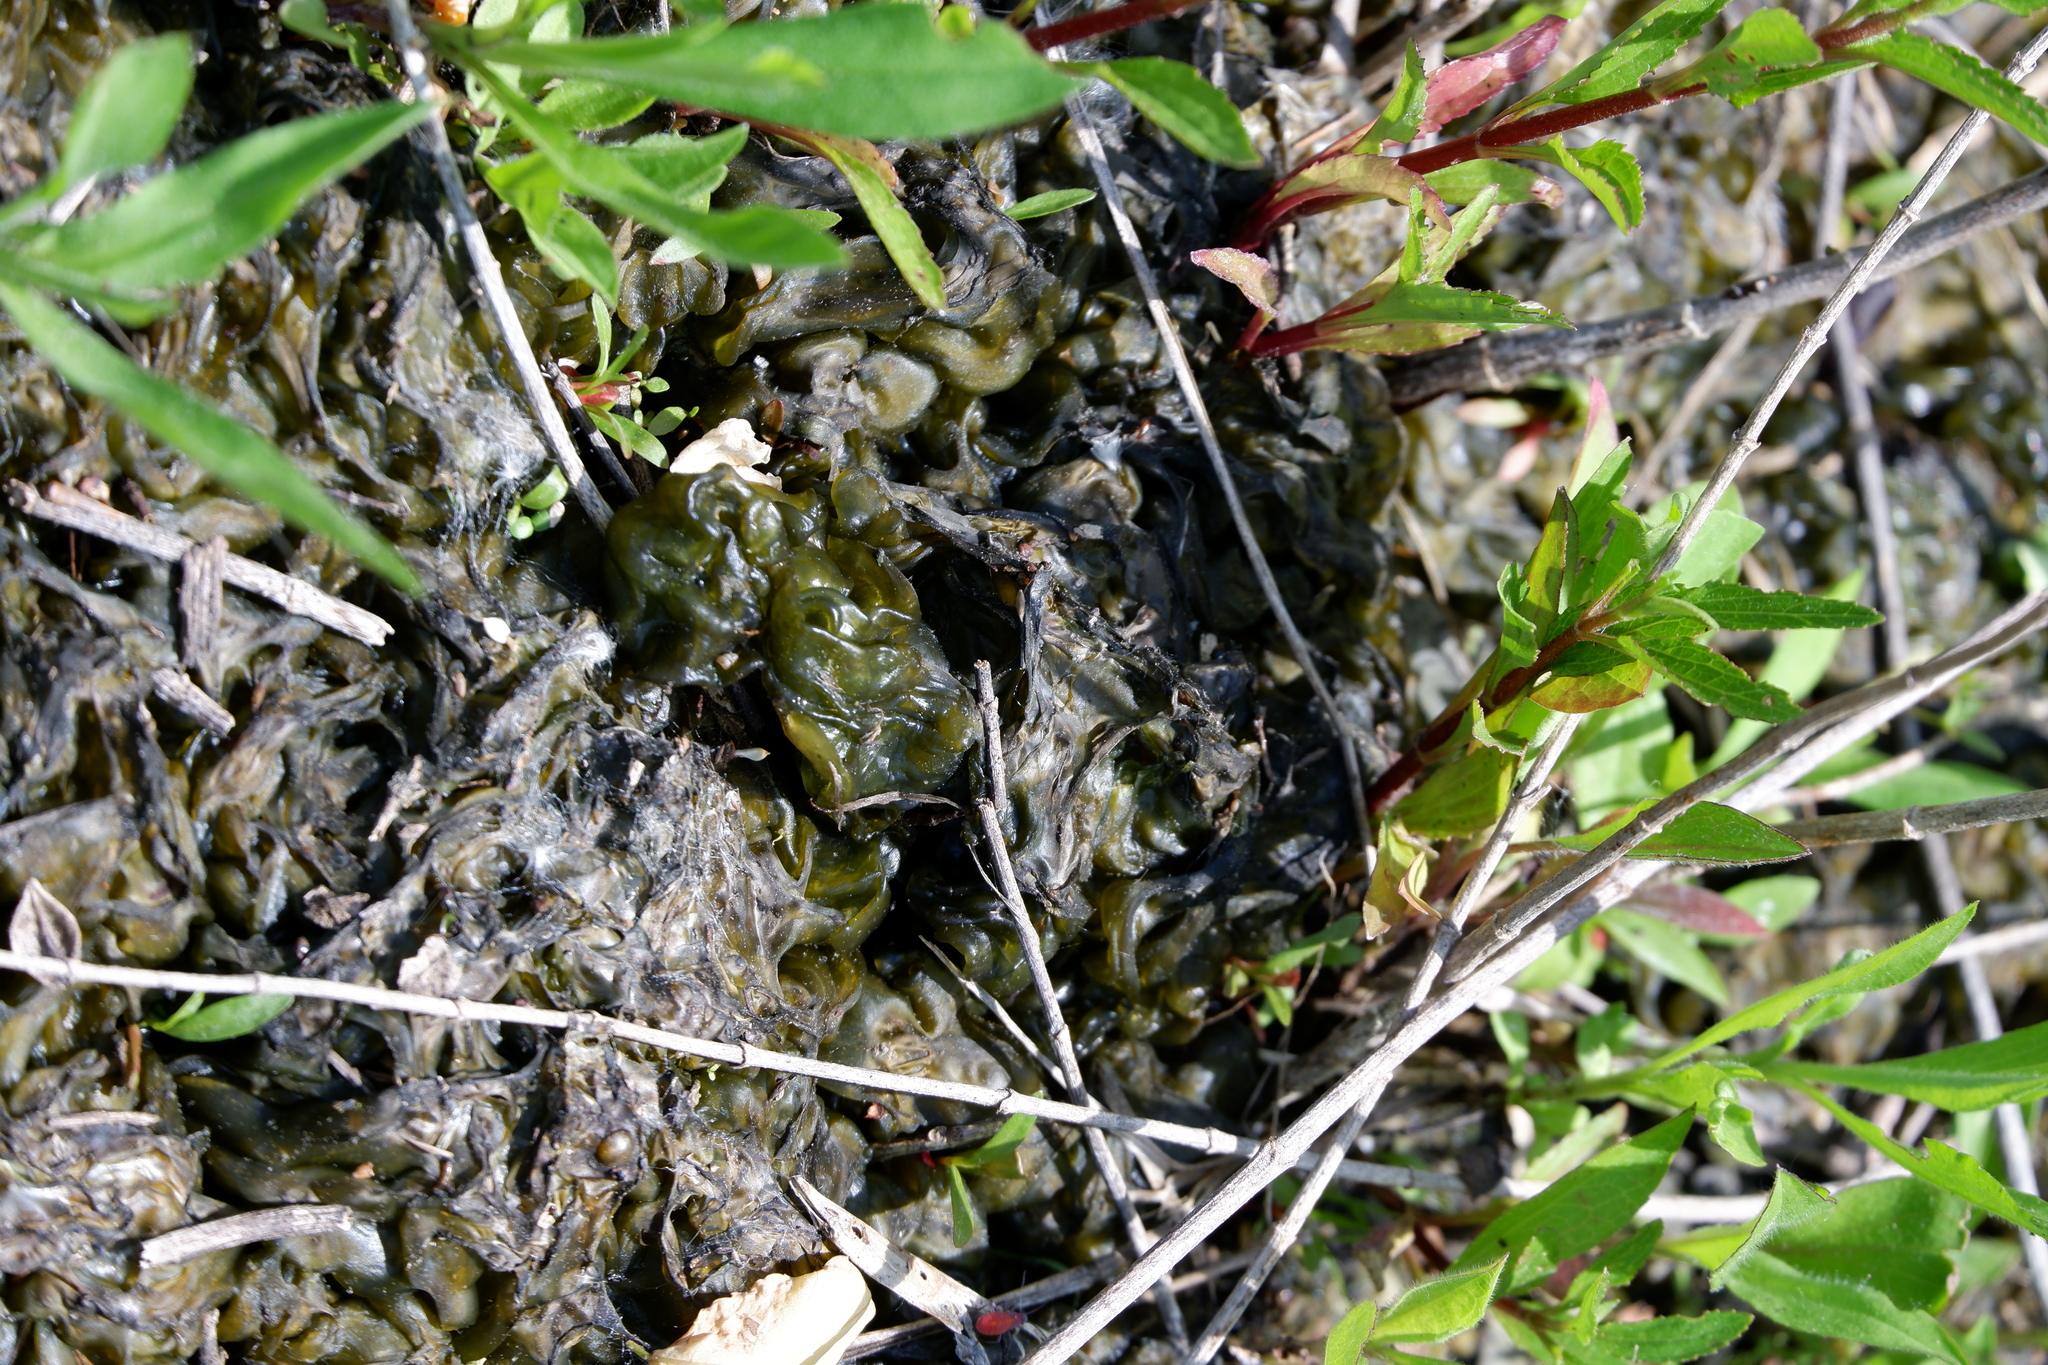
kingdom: Bacteria
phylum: Cyanobacteria
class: Cyanobacteriia
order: Cyanobacteriales
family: Nostocaceae
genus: Nostoc
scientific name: Nostoc commune
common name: Star jelly
